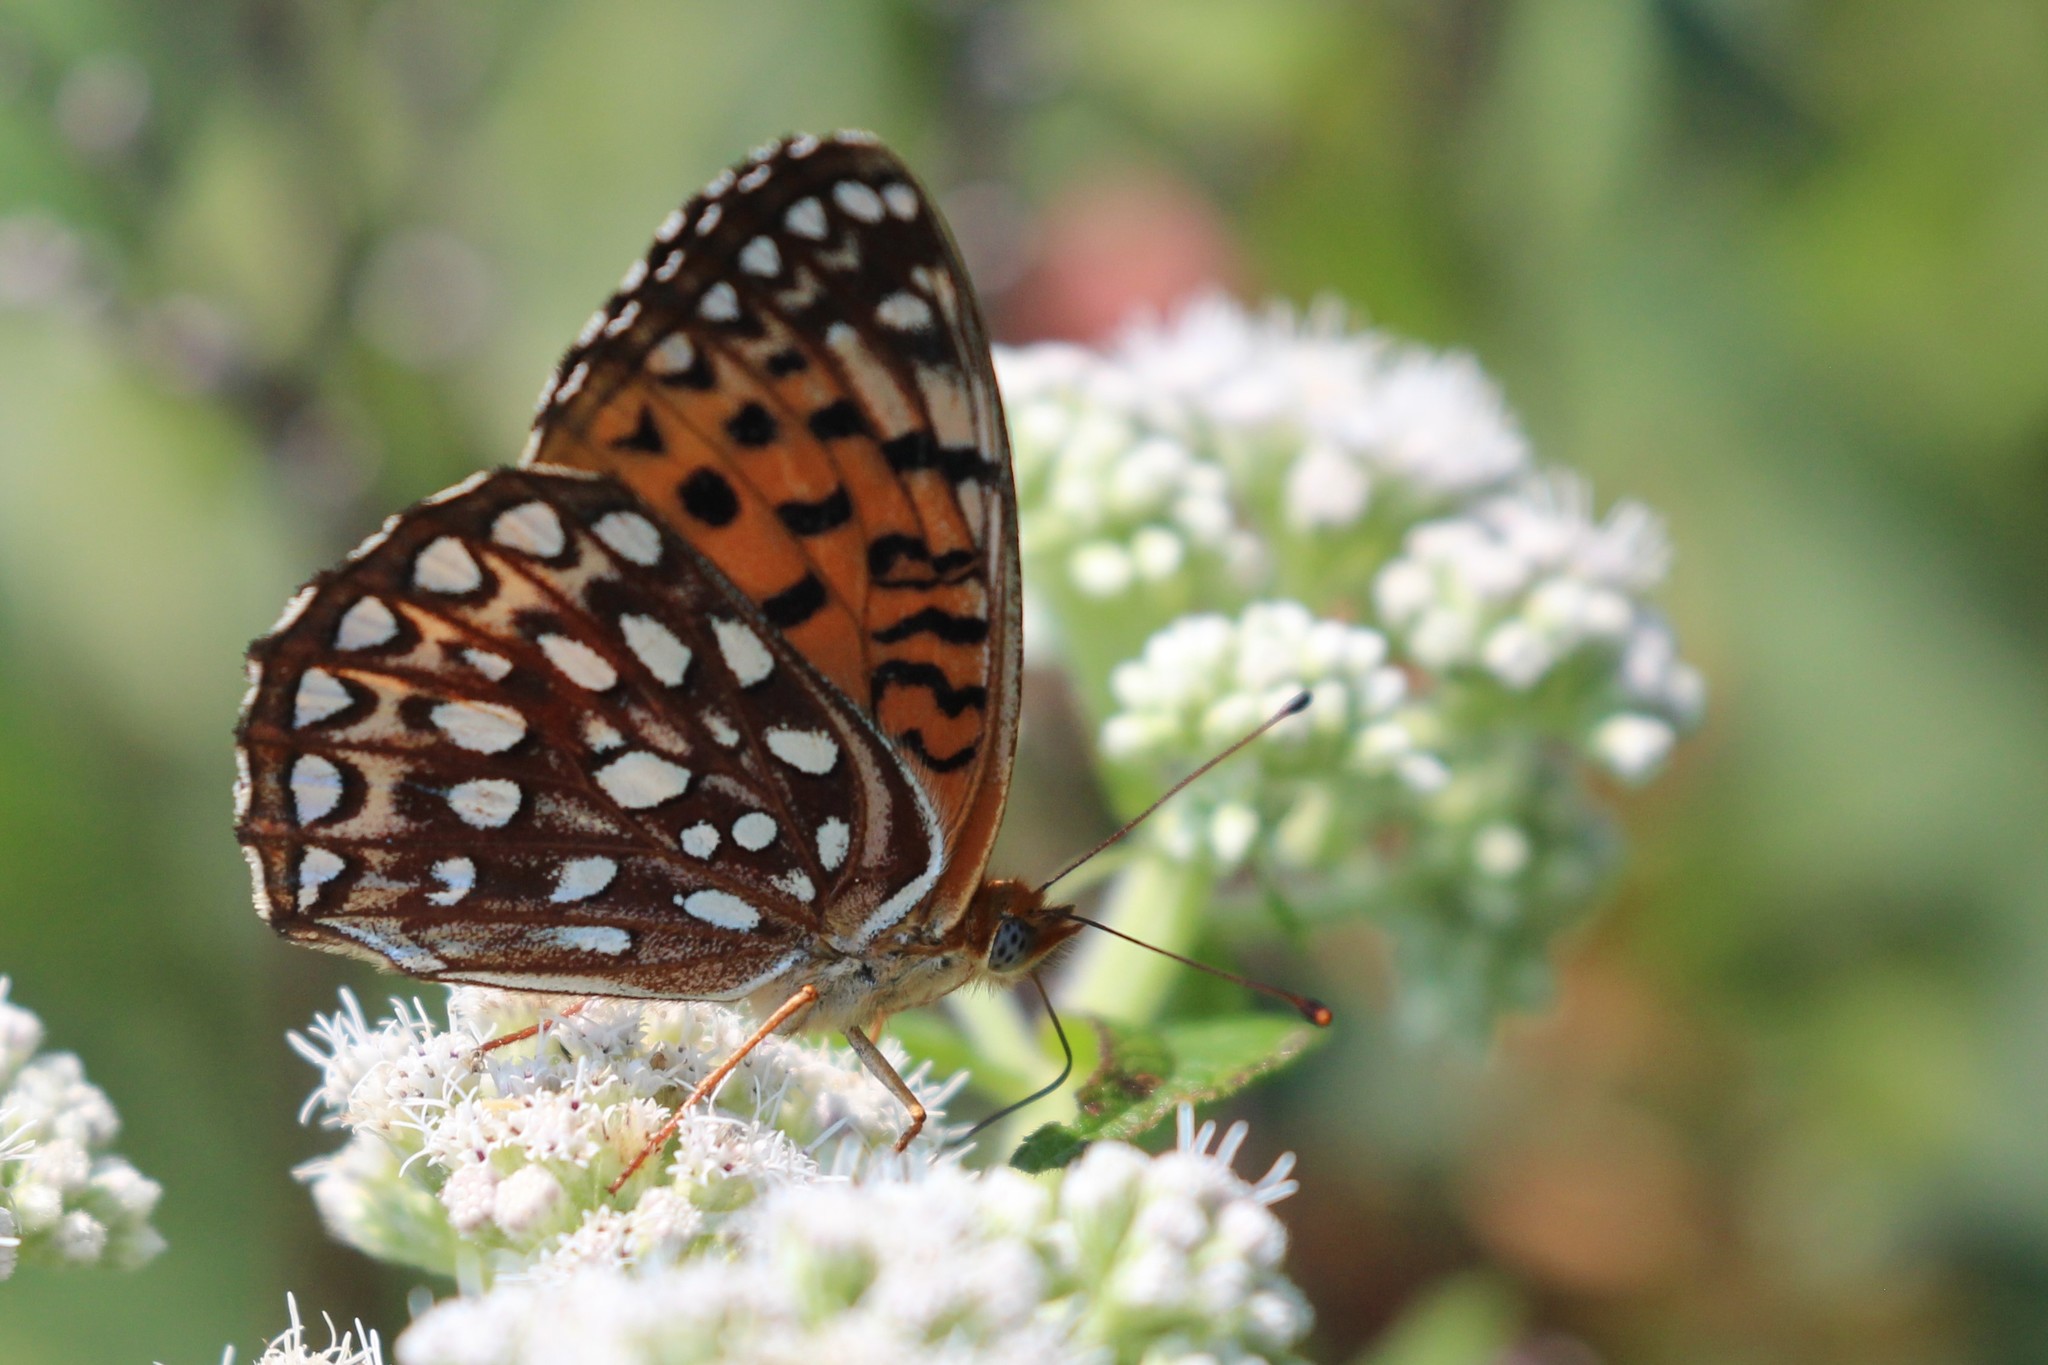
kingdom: Animalia
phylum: Arthropoda
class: Insecta
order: Lepidoptera
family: Nymphalidae
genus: Speyeria
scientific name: Speyeria atlantis
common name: Atlantis fritillary
